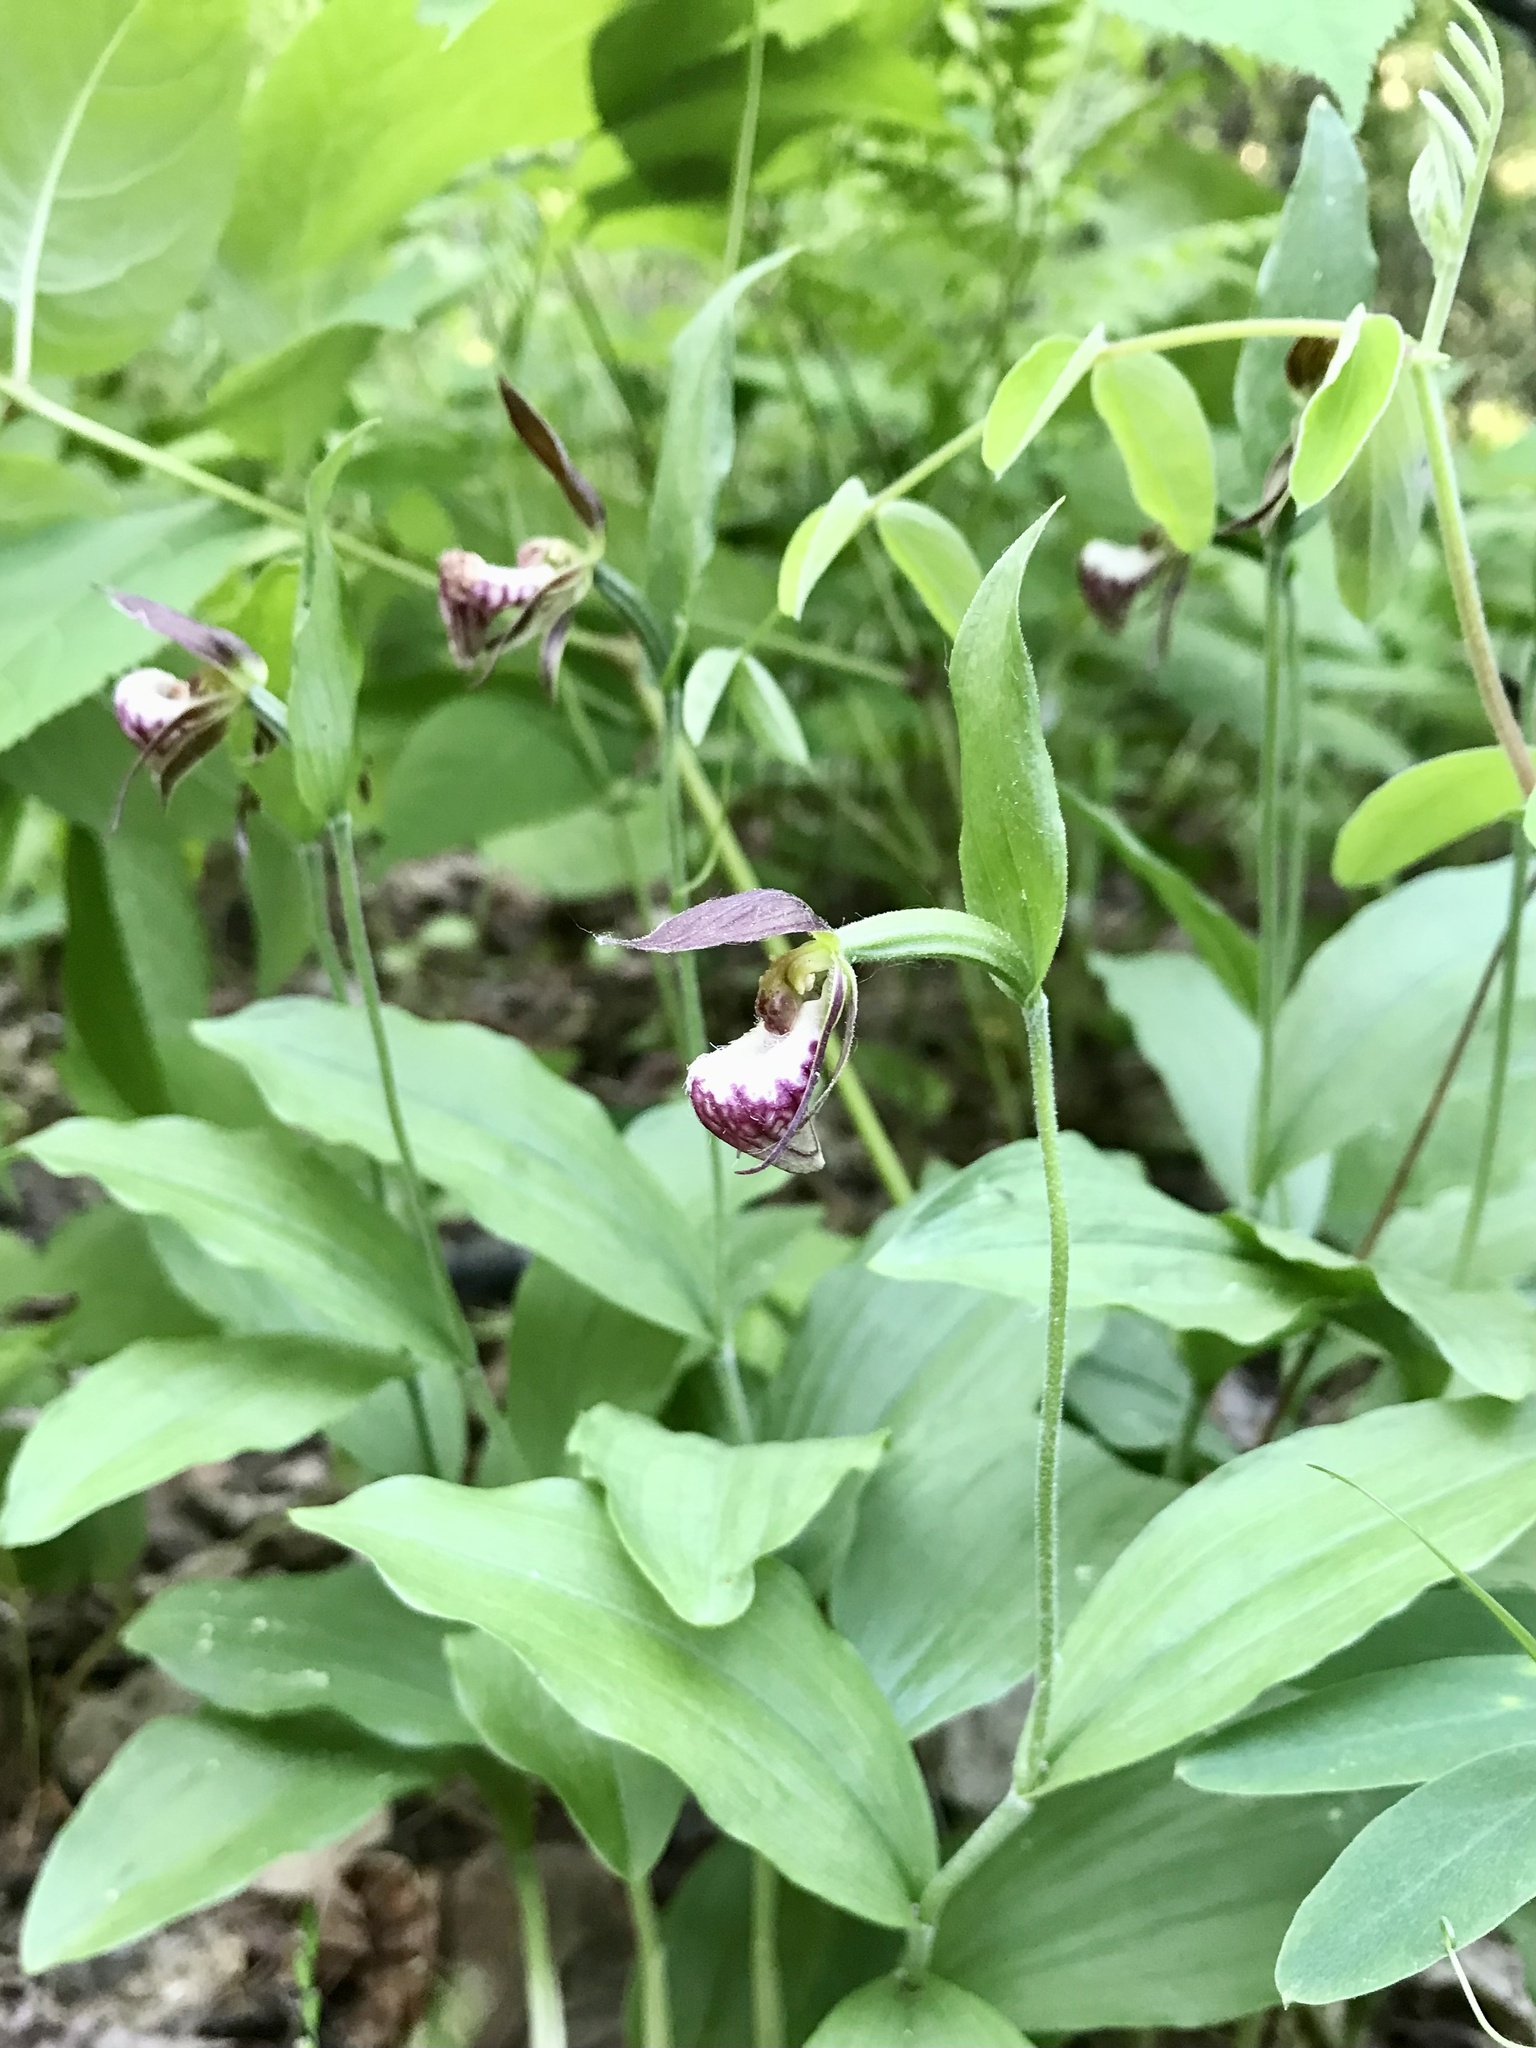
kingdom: Plantae
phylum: Tracheophyta
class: Liliopsida
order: Asparagales
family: Orchidaceae
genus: Cypripedium
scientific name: Cypripedium arietinum
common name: Ram's-head
